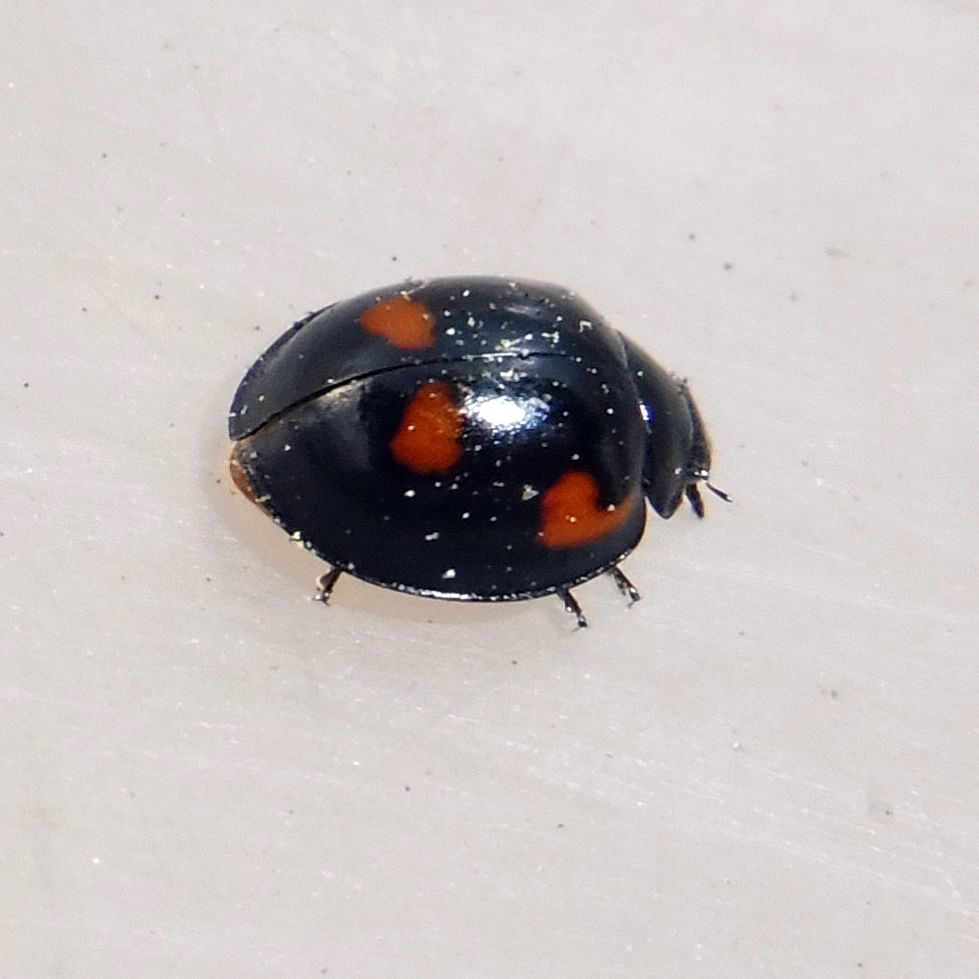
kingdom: Animalia
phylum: Arthropoda
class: Insecta
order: Coleoptera
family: Coccinellidae
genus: Brumus
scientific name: Brumus quadripustulatus
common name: Ladybird beetle
